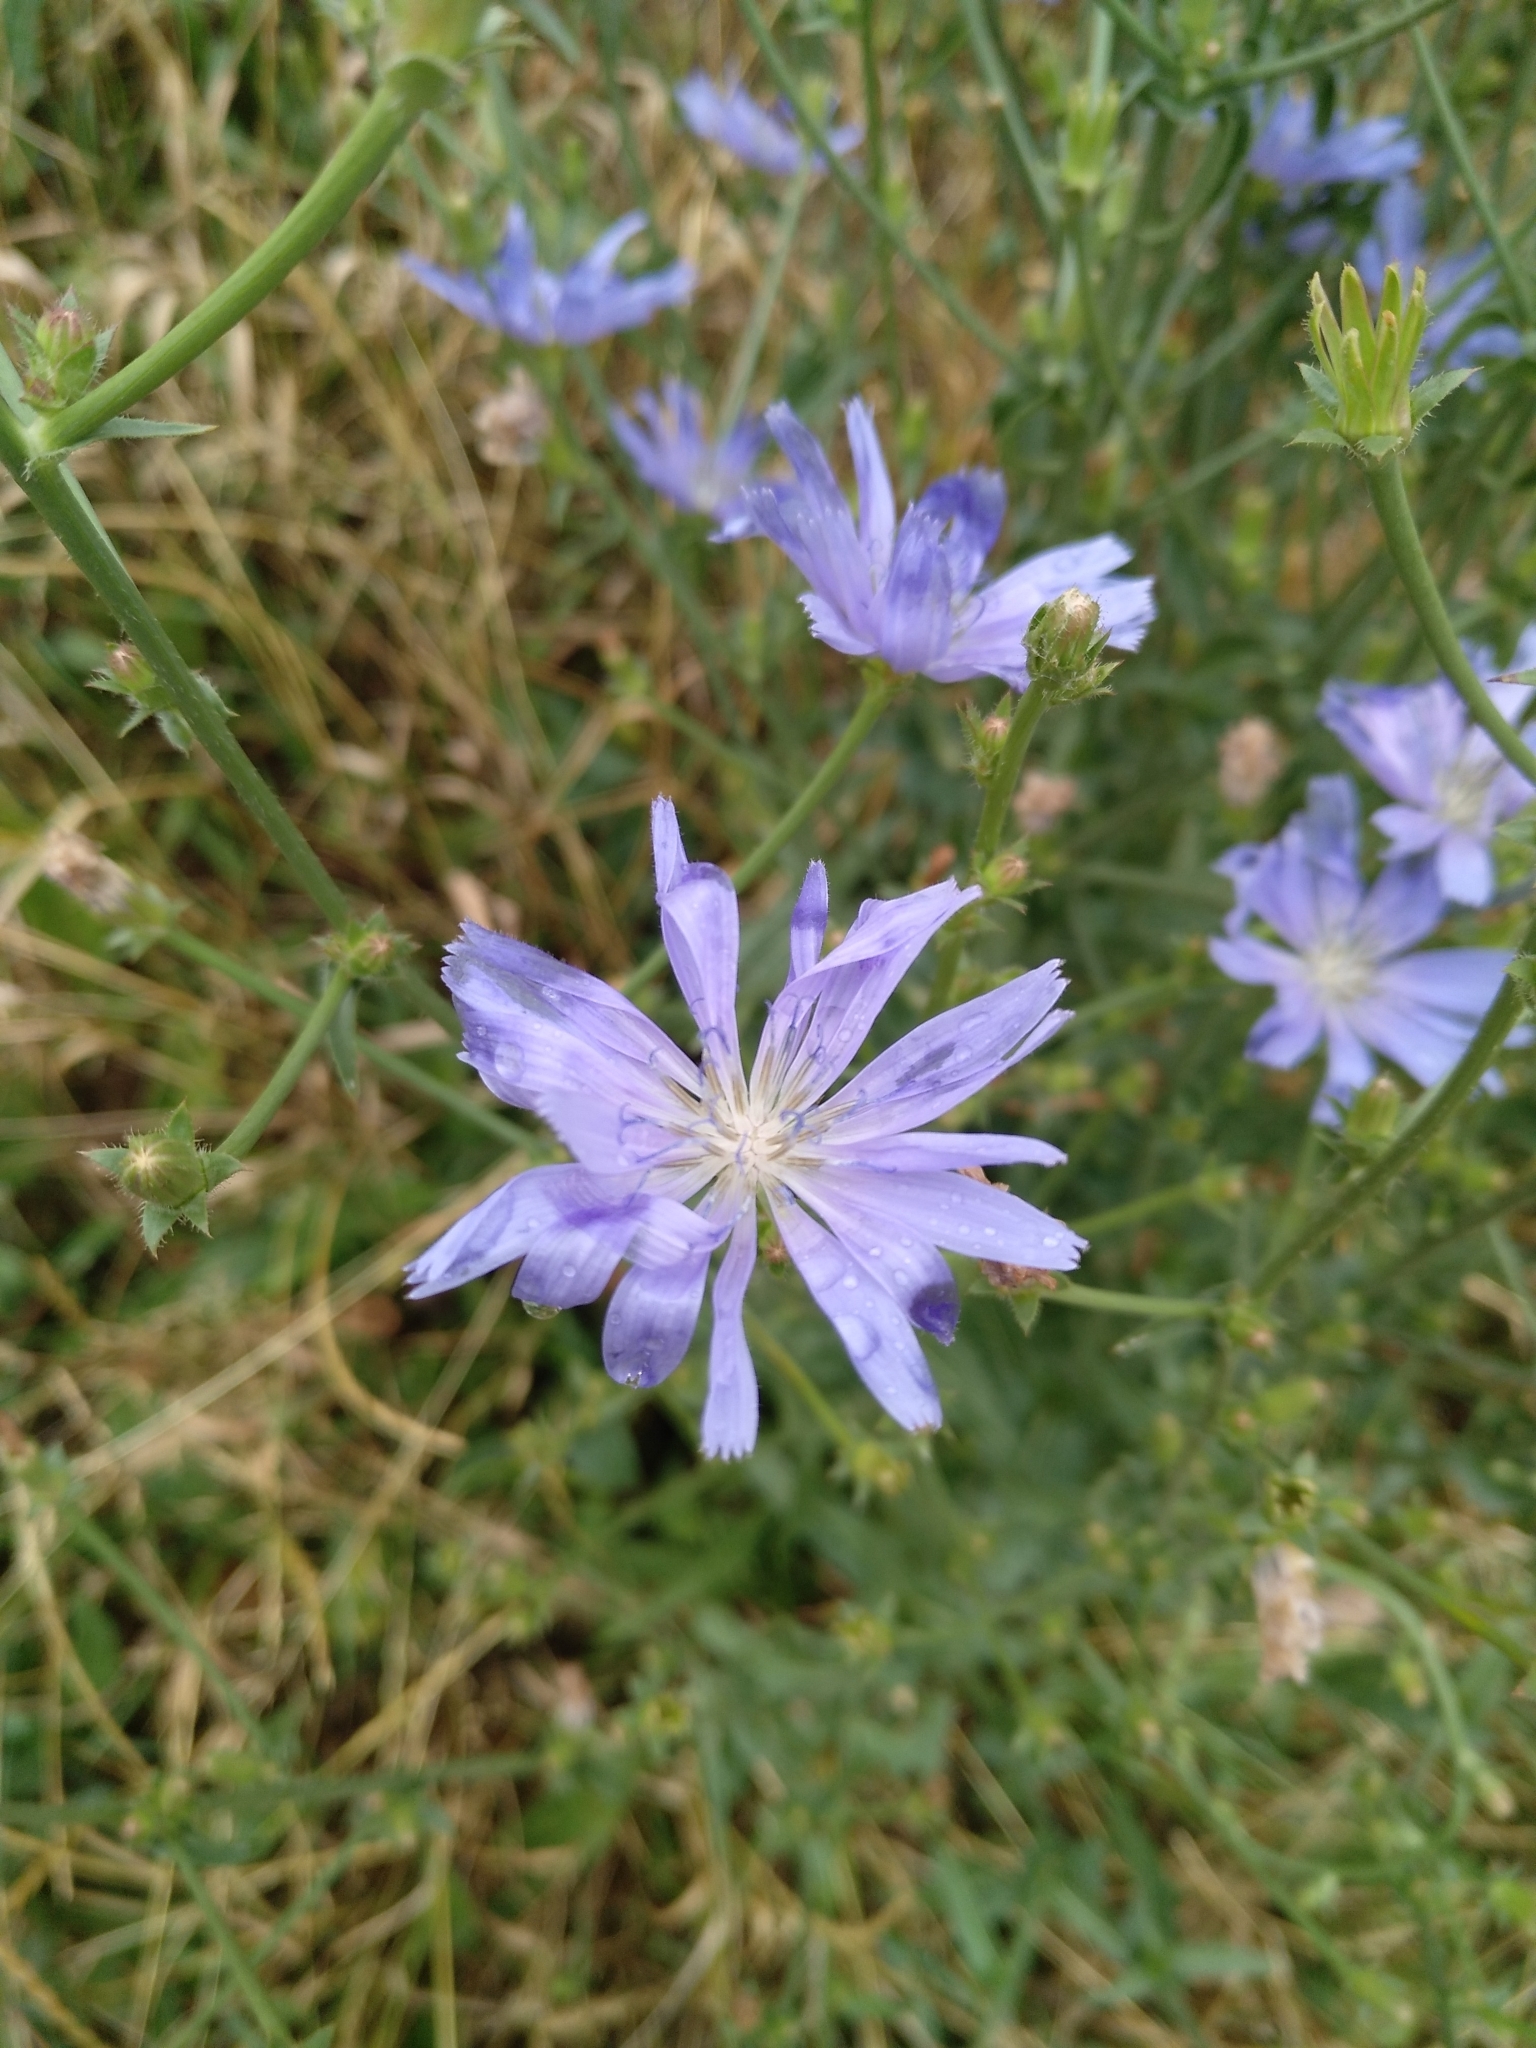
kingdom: Plantae
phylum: Tracheophyta
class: Magnoliopsida
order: Asterales
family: Asteraceae
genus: Cichorium
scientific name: Cichorium intybus
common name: Chicory
